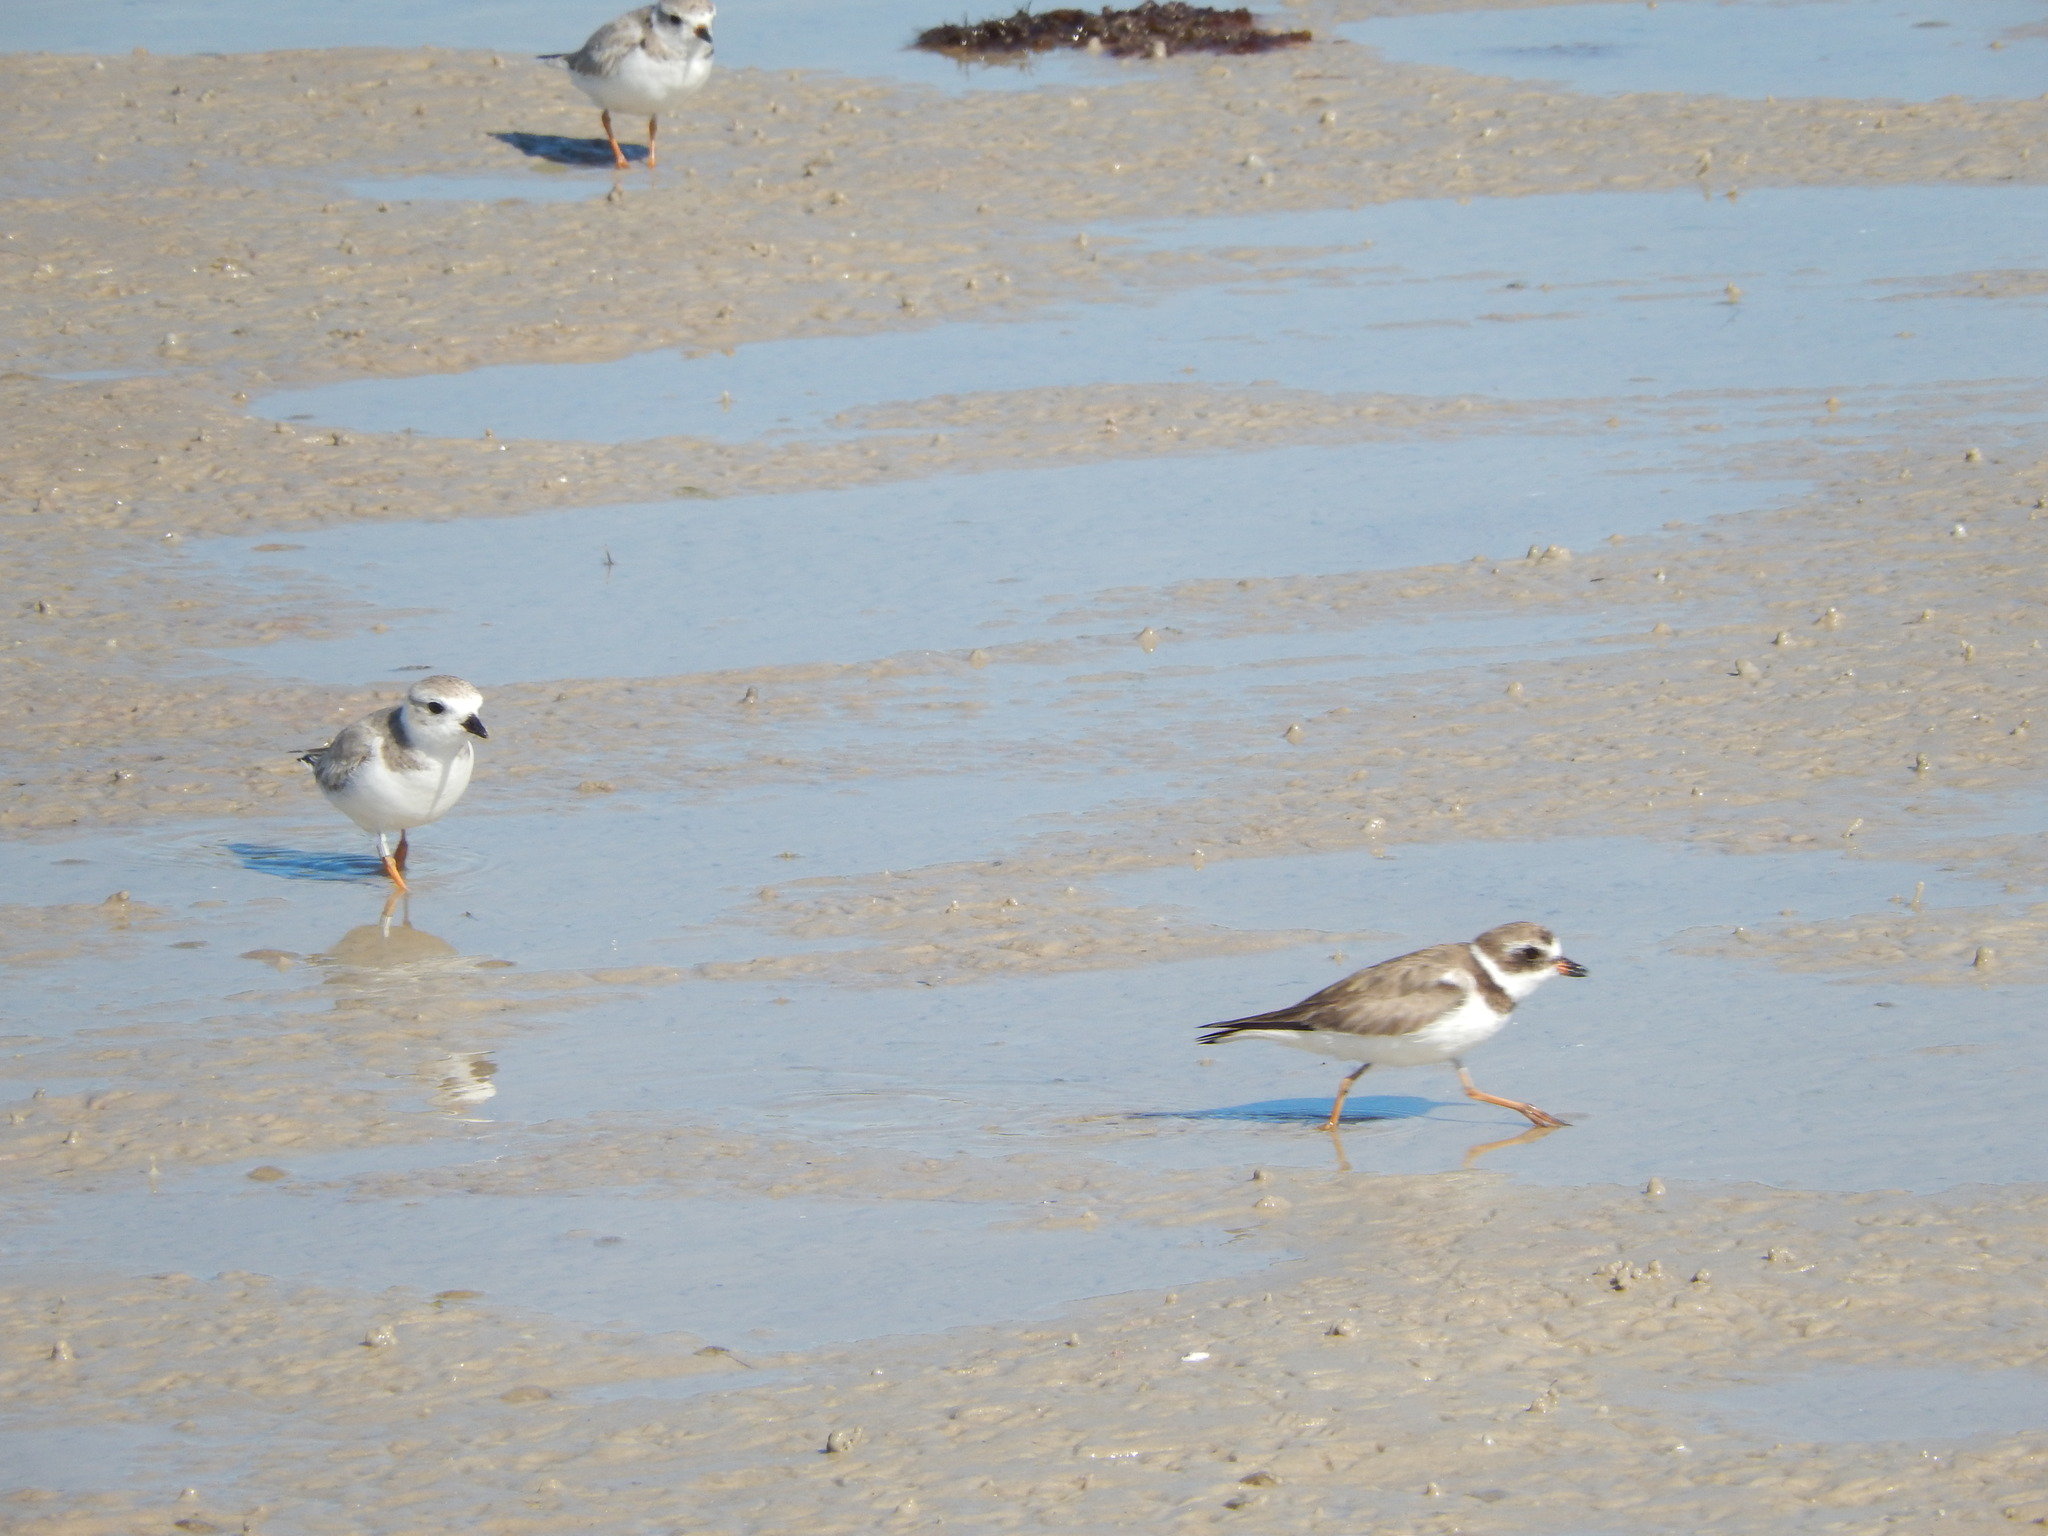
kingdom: Animalia
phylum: Chordata
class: Aves
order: Charadriiformes
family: Charadriidae
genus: Charadrius
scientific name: Charadrius melodus
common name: Piping plover
